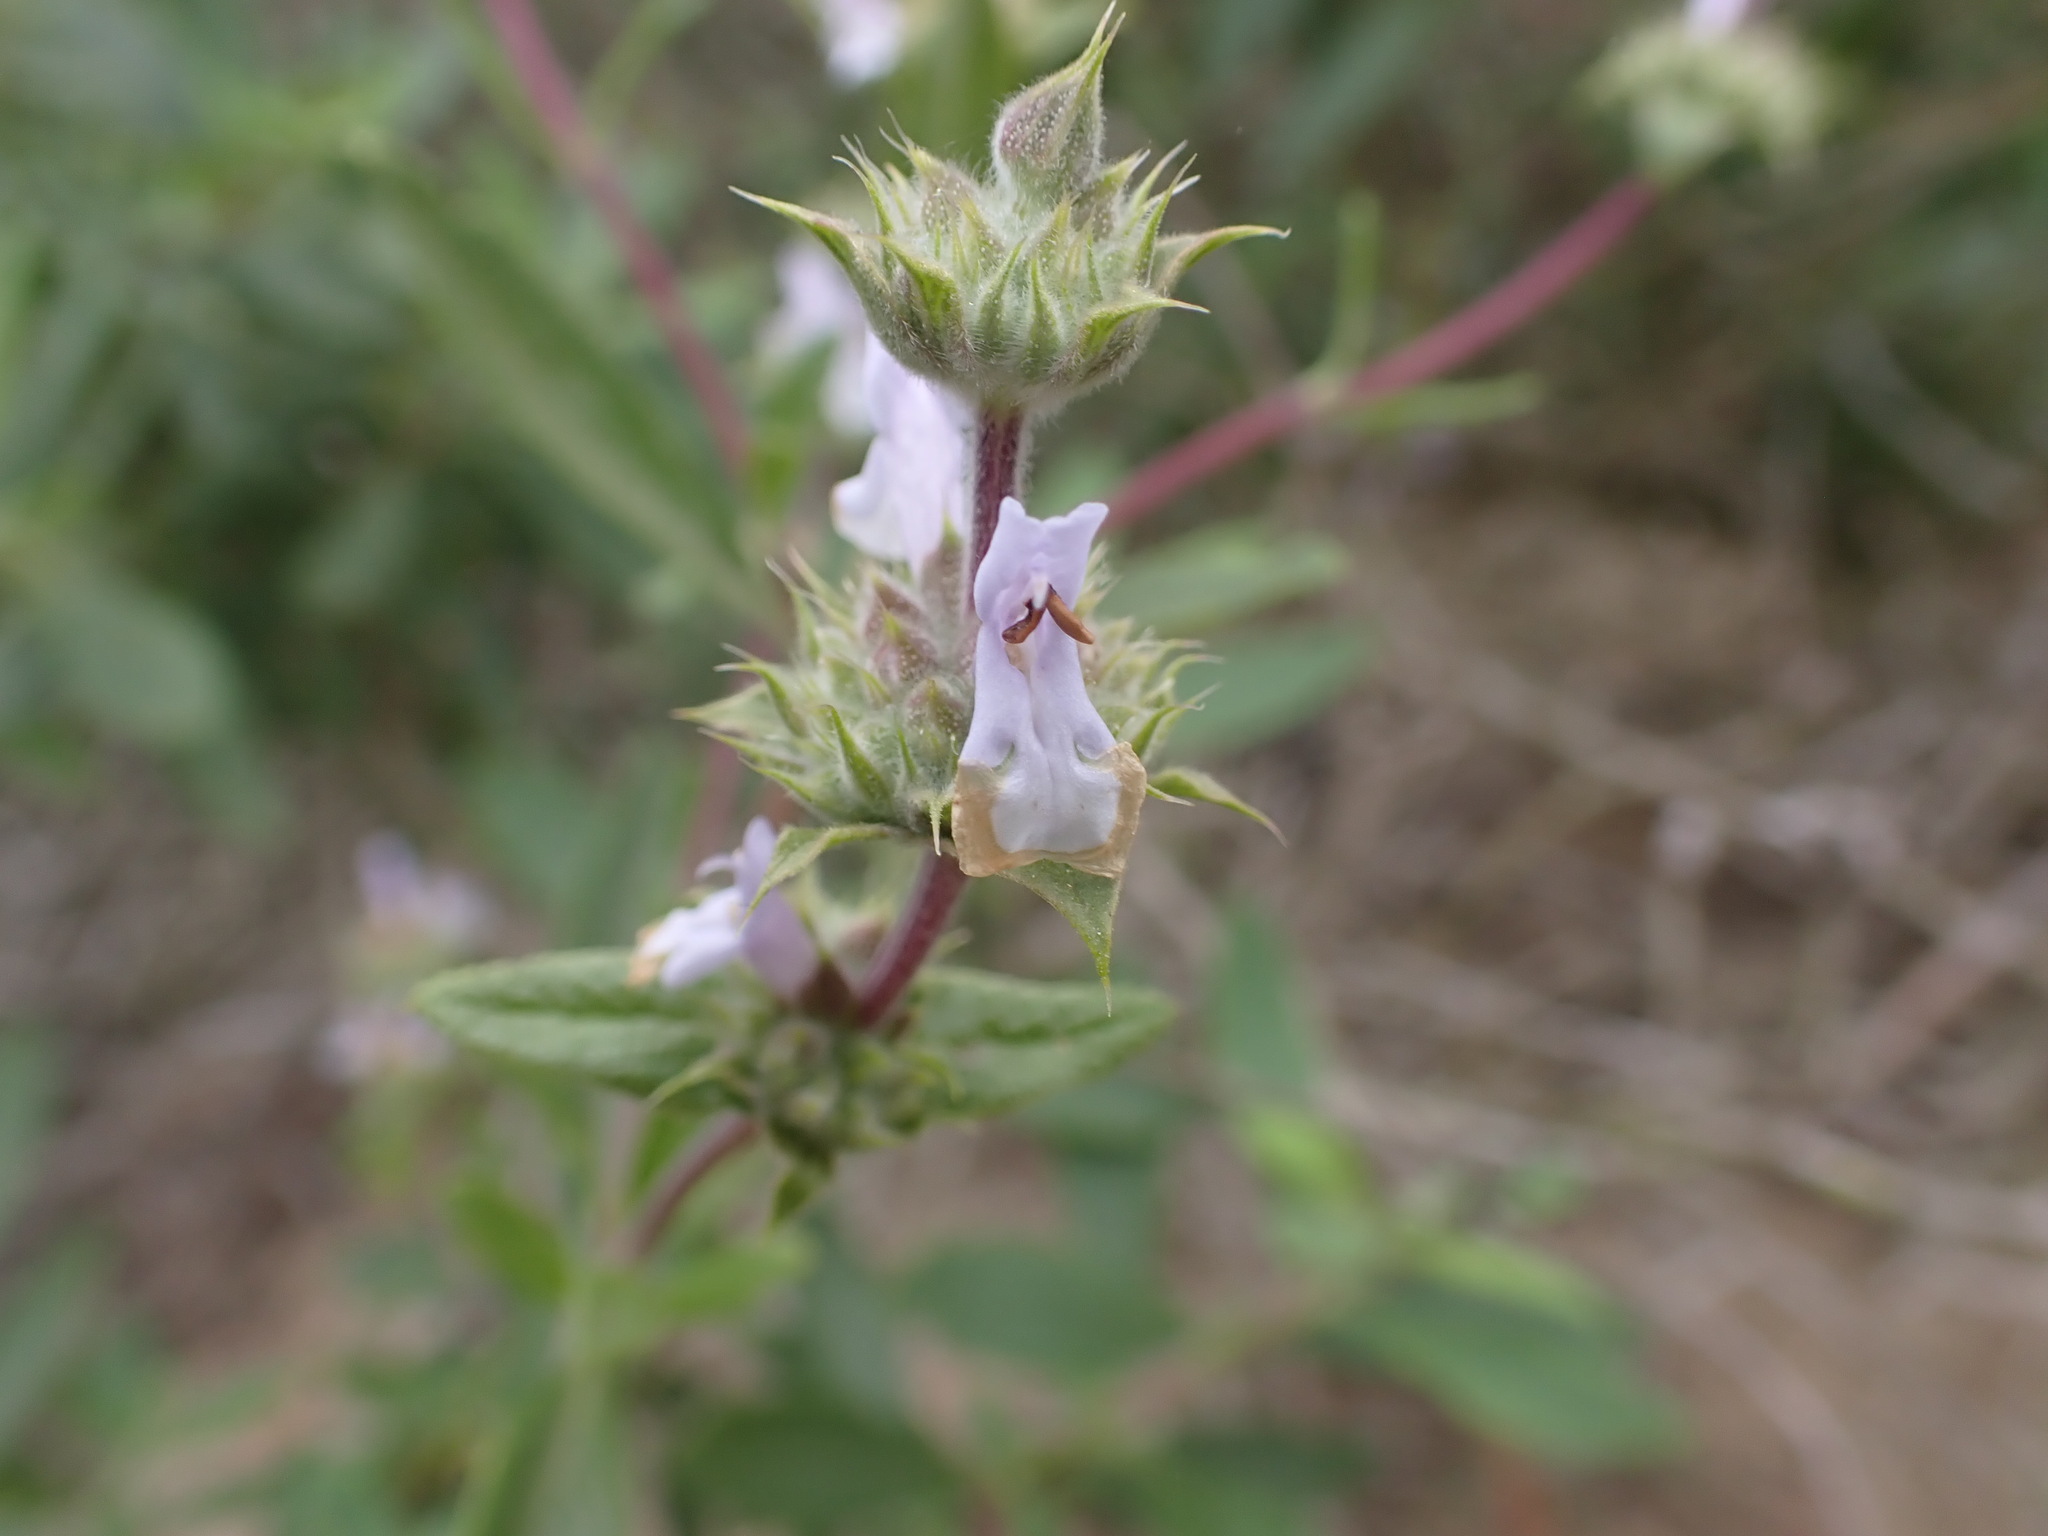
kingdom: Plantae
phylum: Tracheophyta
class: Magnoliopsida
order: Lamiales
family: Lamiaceae
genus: Salvia
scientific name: Salvia mellifera
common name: Black sage
